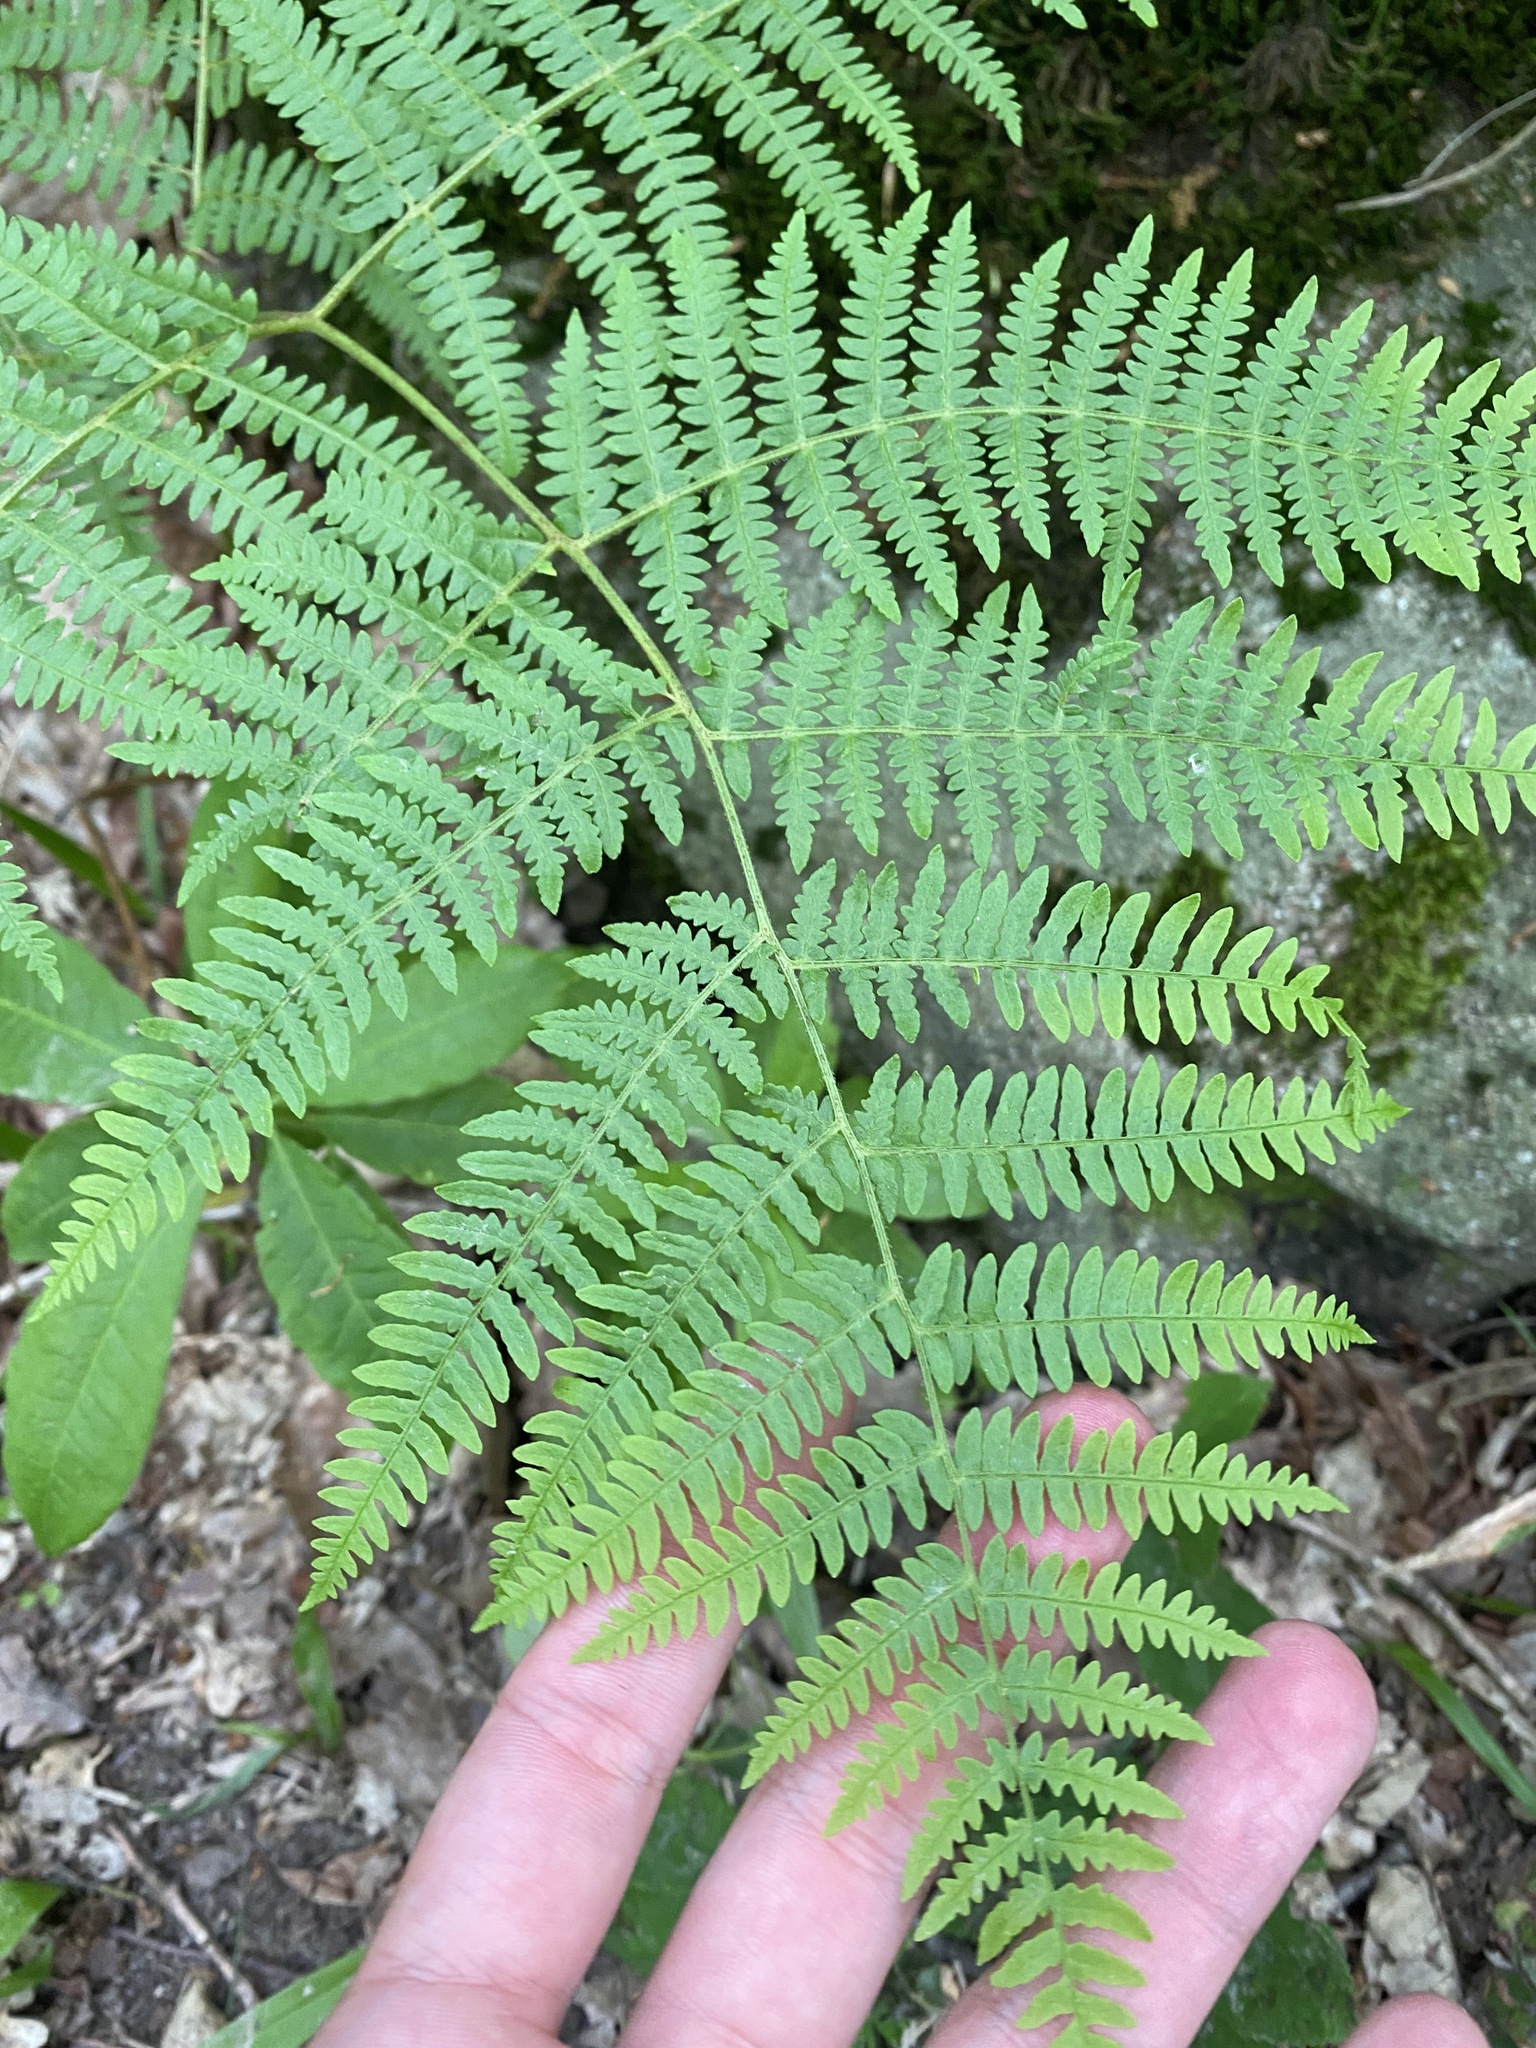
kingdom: Plantae
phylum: Tracheophyta
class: Polypodiopsida
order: Polypodiales
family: Dennstaedtiaceae
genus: Pteridium
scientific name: Pteridium tauricum
